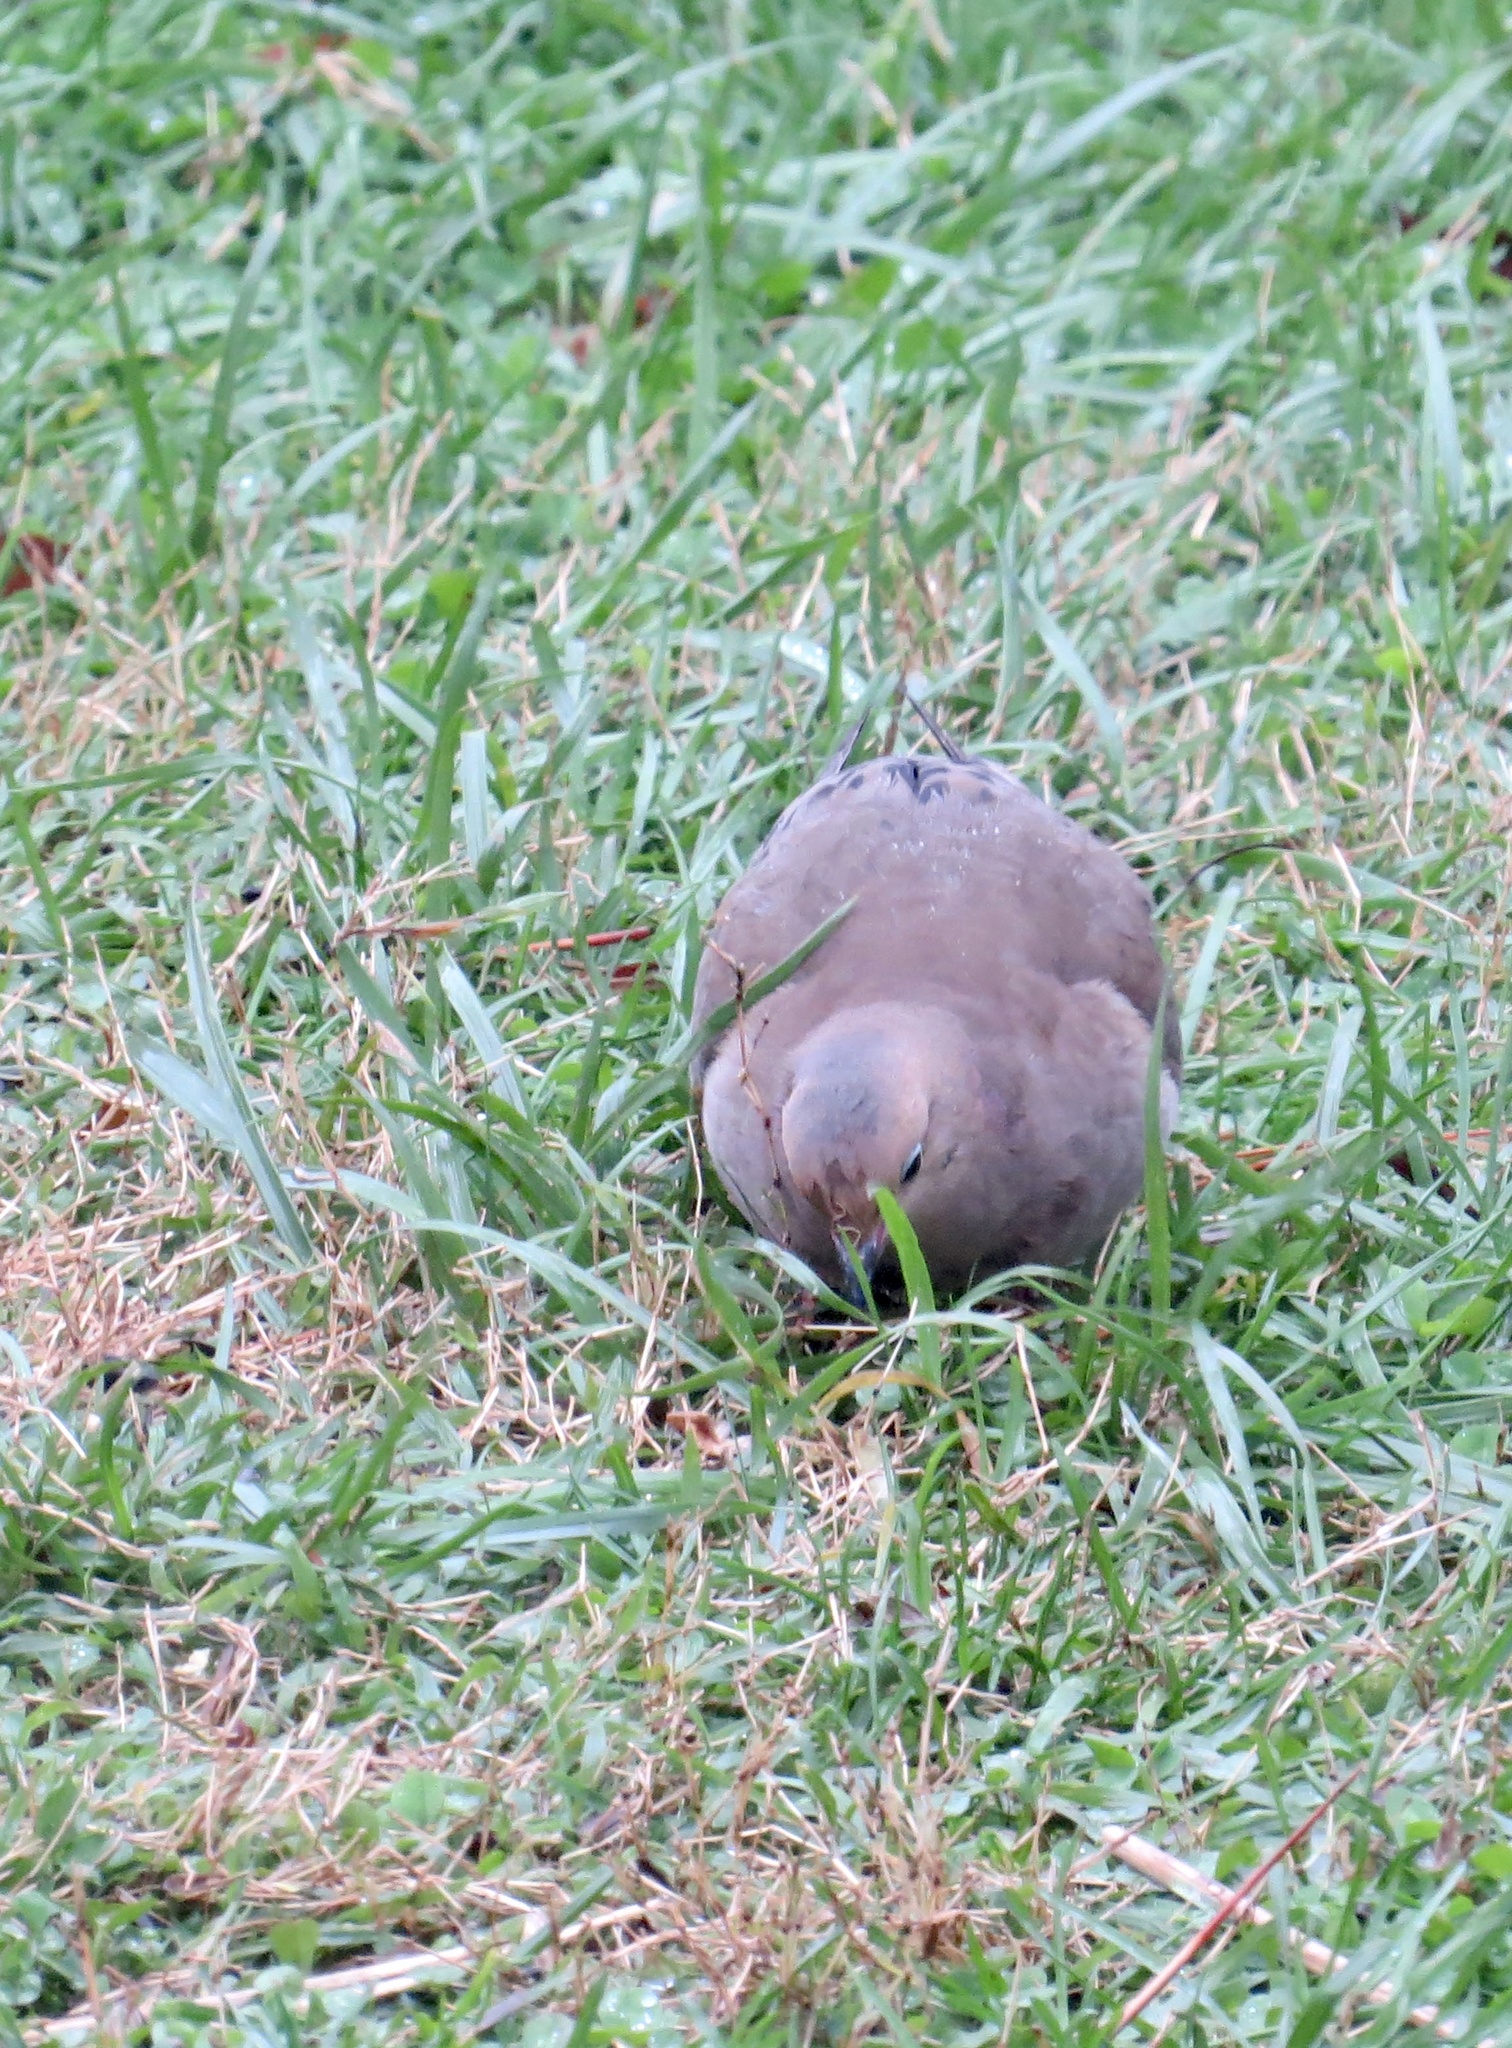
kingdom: Animalia
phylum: Chordata
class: Aves
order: Columbiformes
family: Columbidae
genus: Zenaida
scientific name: Zenaida macroura
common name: Mourning dove
